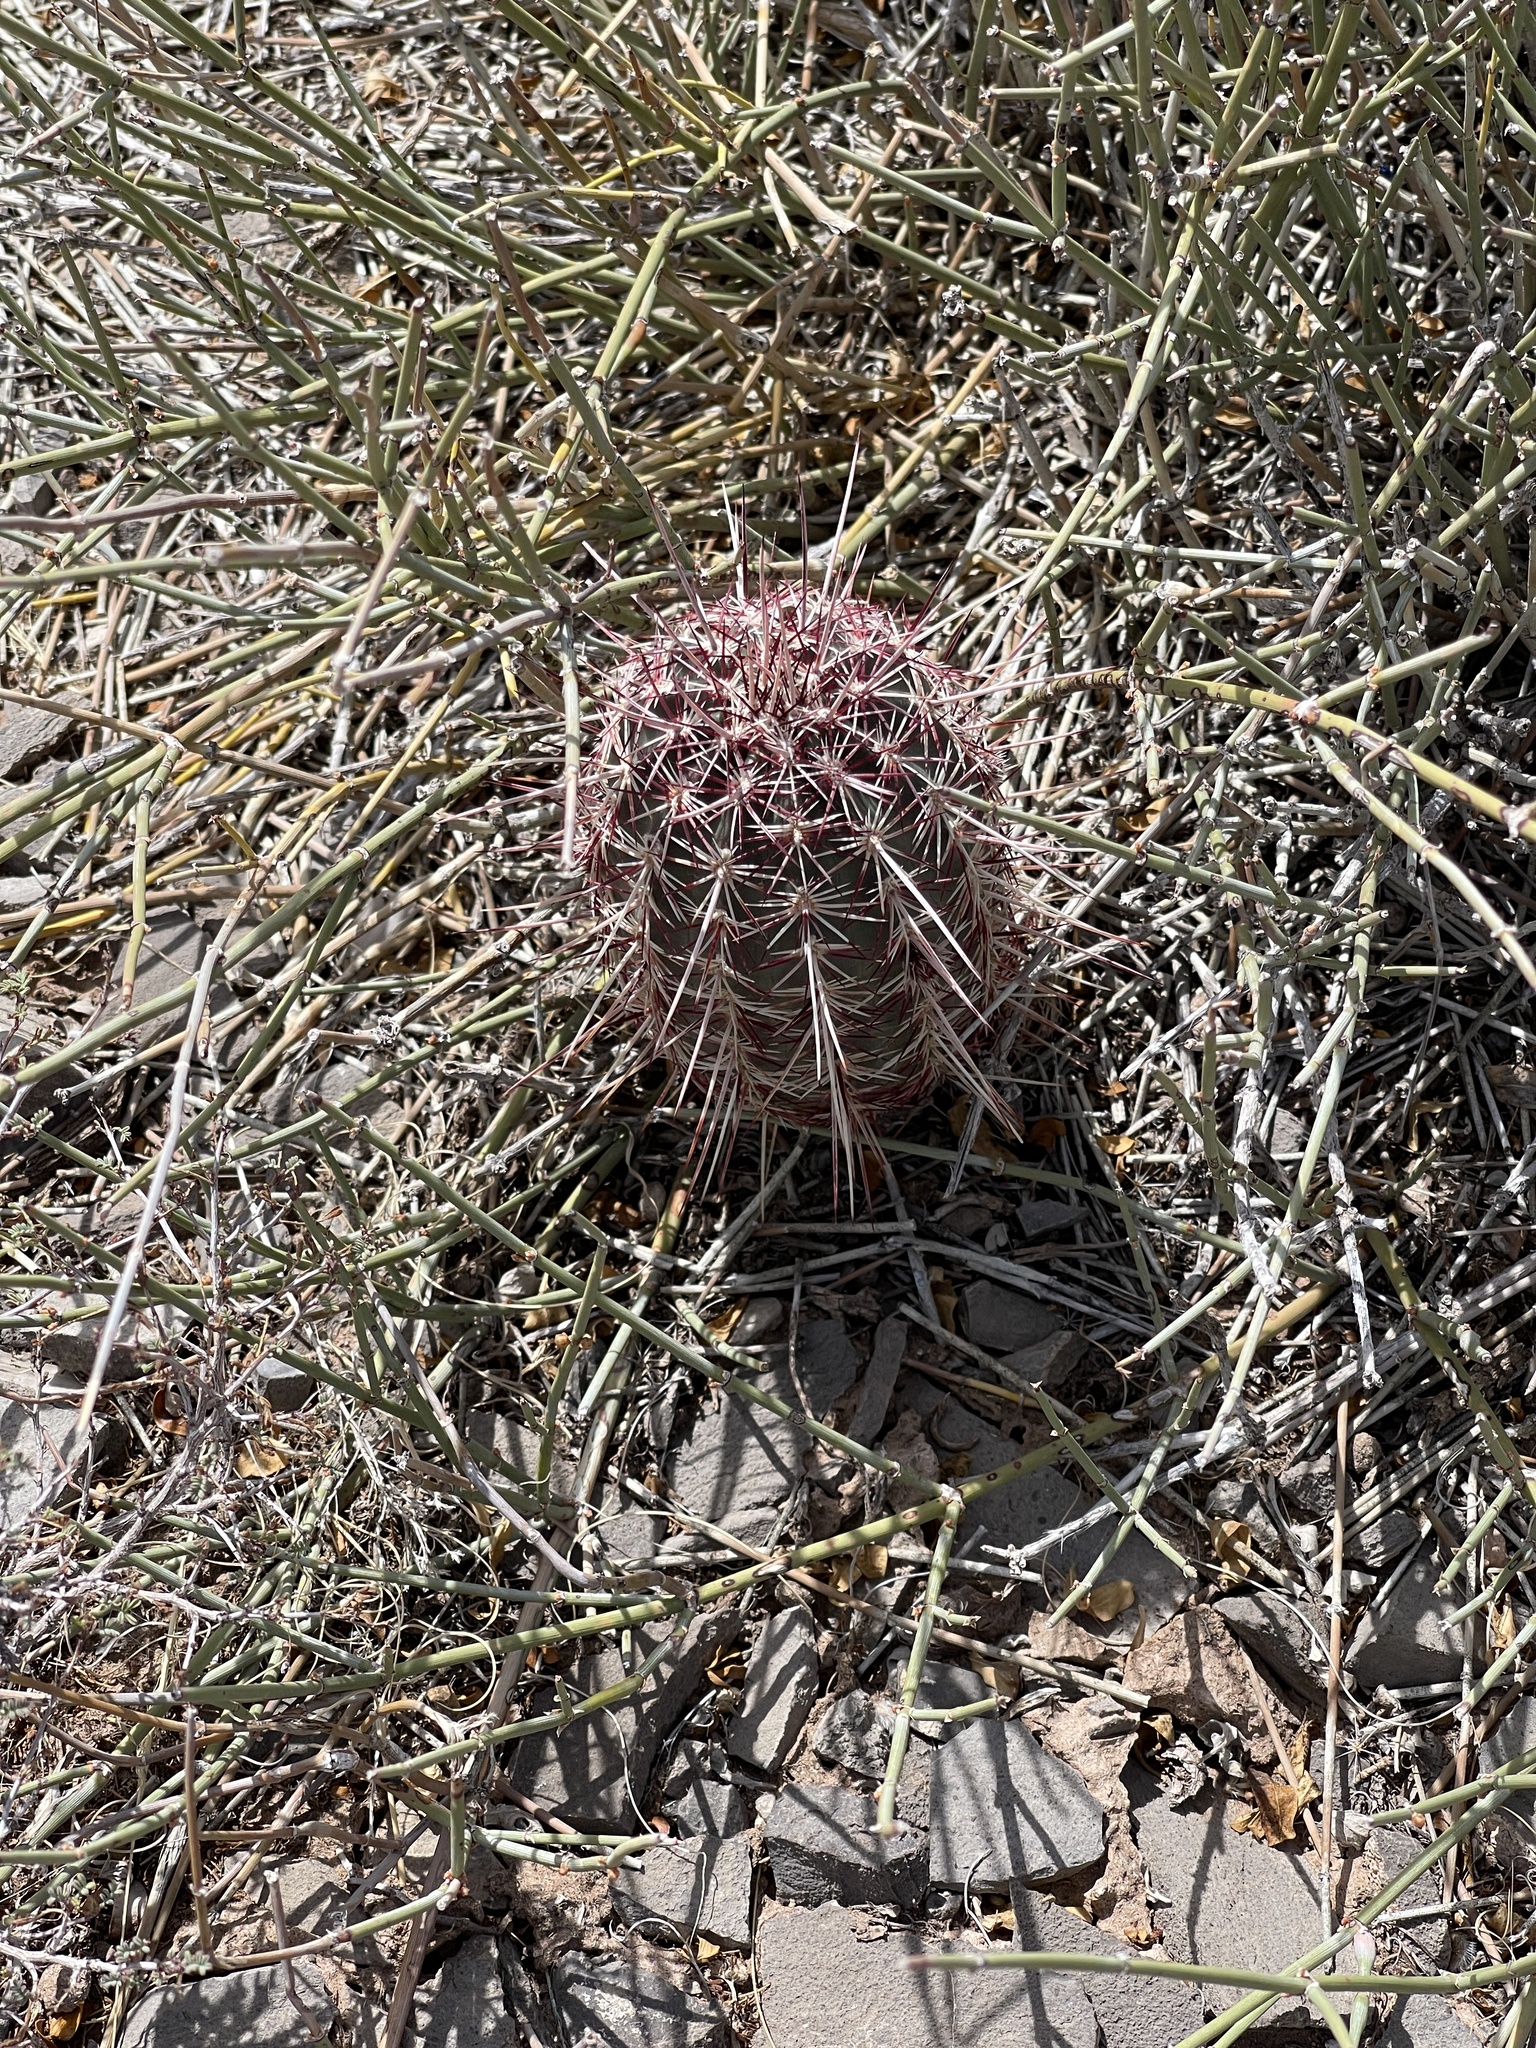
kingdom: Plantae
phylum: Tracheophyta
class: Magnoliopsida
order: Caryophyllales
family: Cactaceae
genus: Echinocereus
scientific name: Echinocereus viridiflorus
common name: Nylon hedgehog cactus
